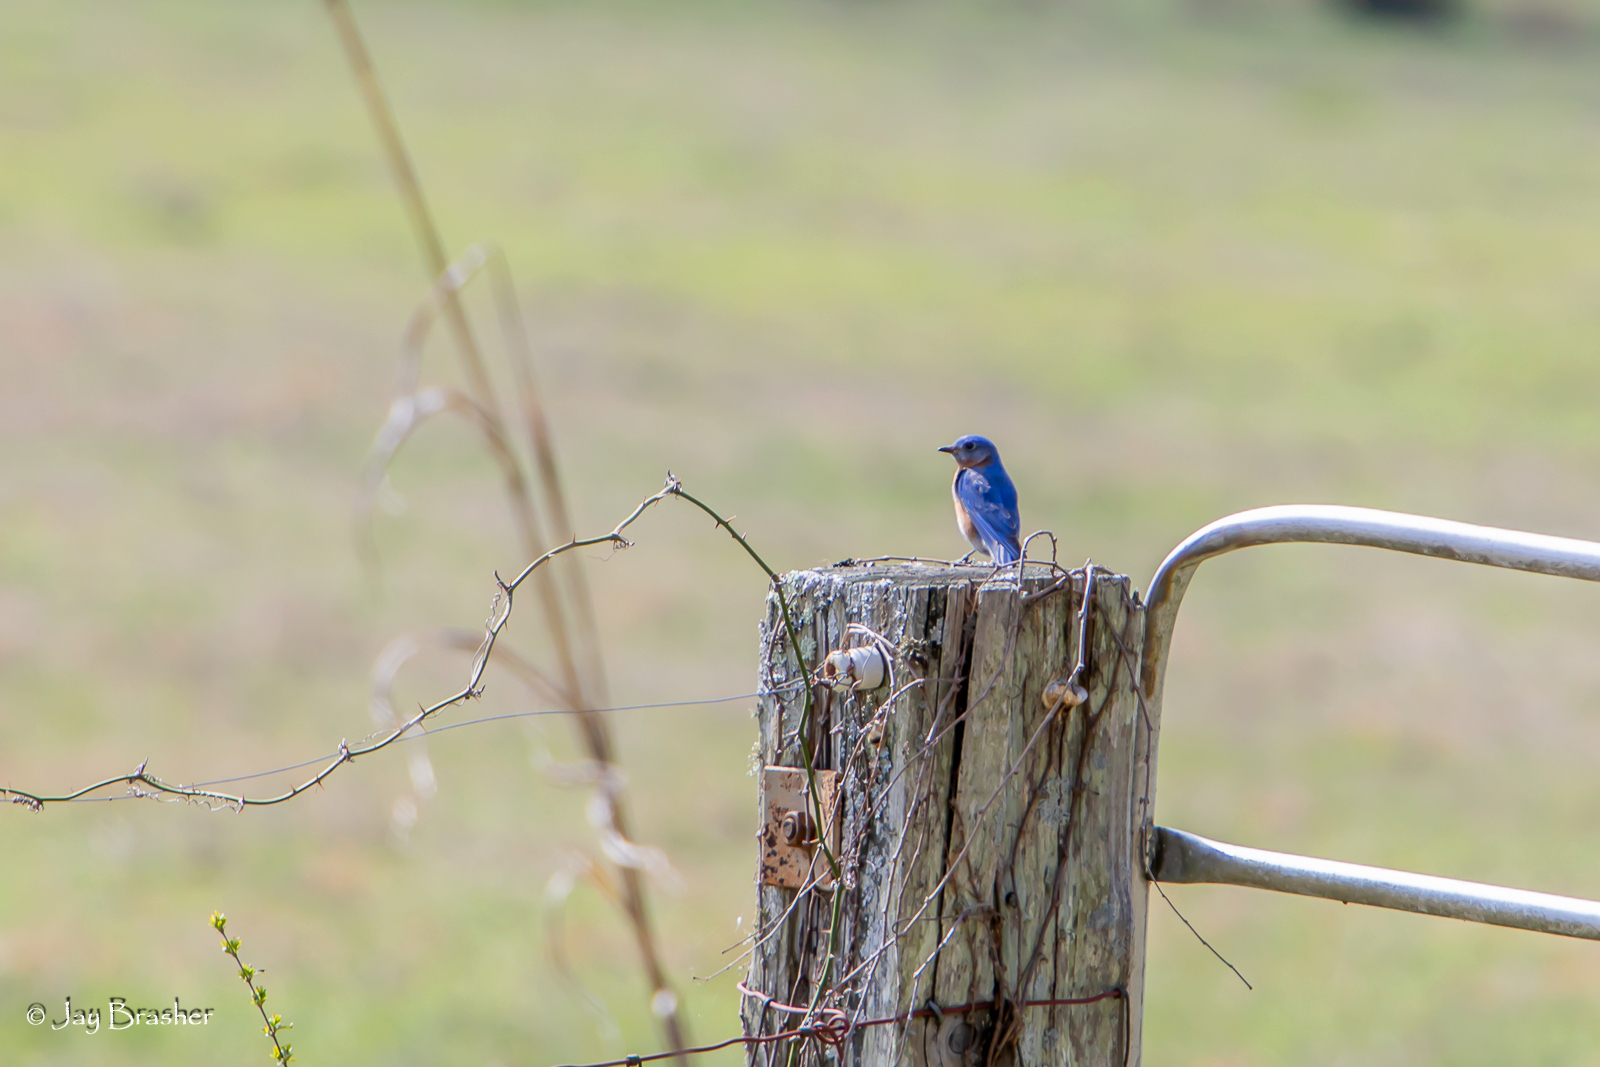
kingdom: Animalia
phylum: Chordata
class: Aves
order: Passeriformes
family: Turdidae
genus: Sialia
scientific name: Sialia sialis
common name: Eastern bluebird
